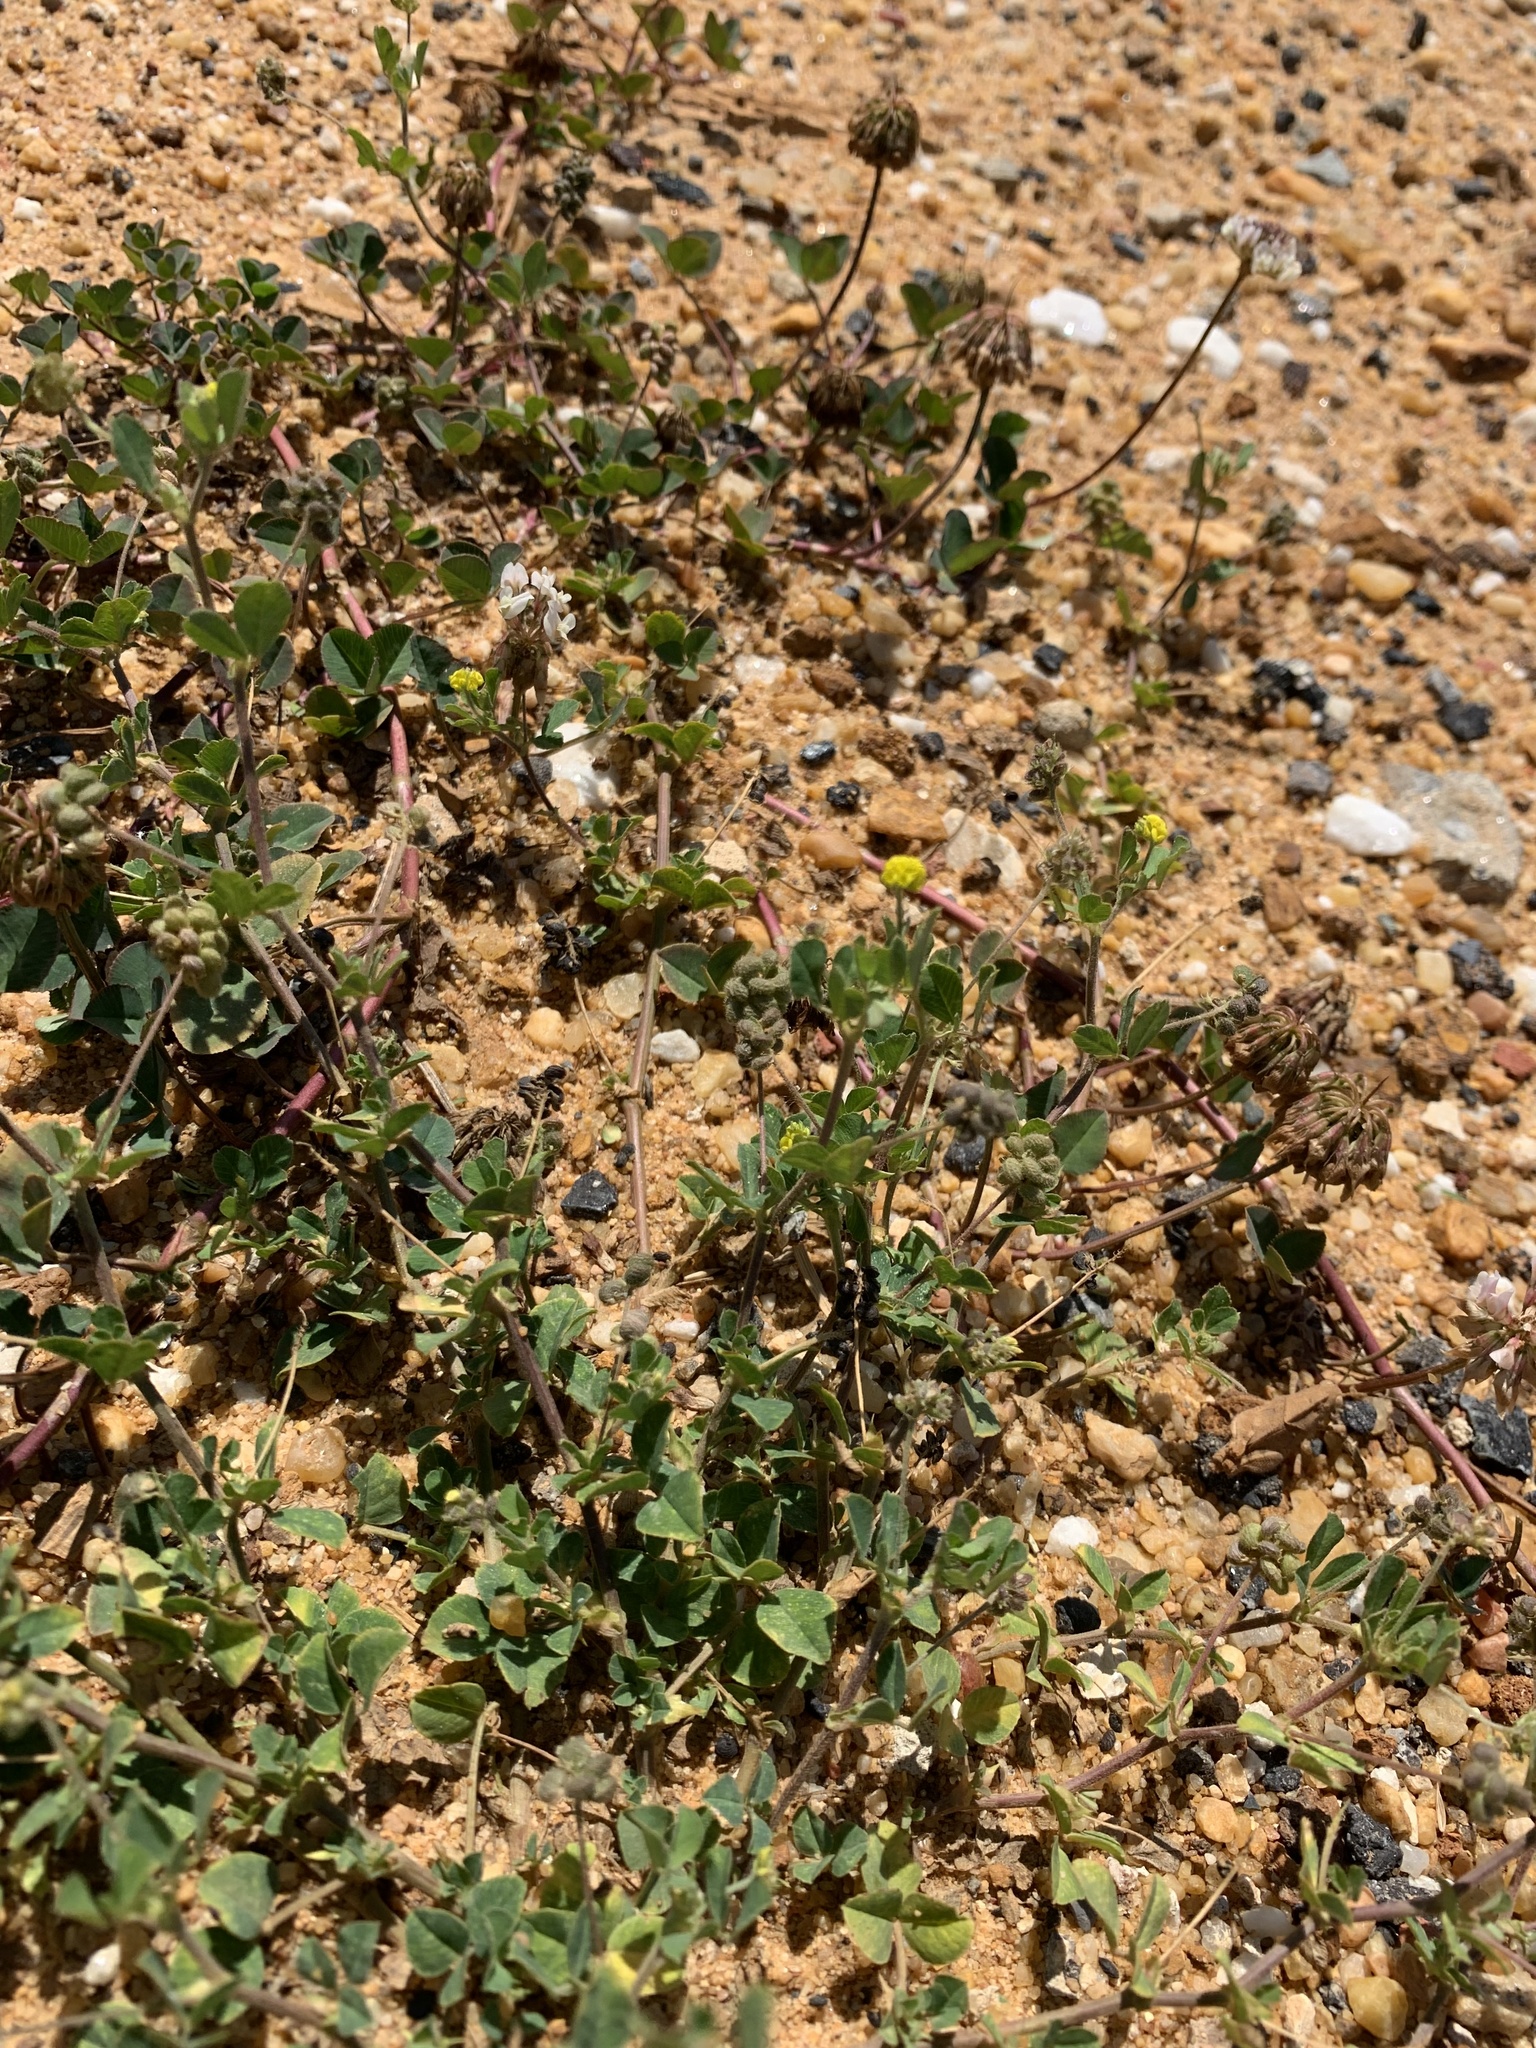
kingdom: Plantae
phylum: Tracheophyta
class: Magnoliopsida
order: Fabales
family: Fabaceae
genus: Medicago
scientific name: Medicago lupulina
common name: Black medick
